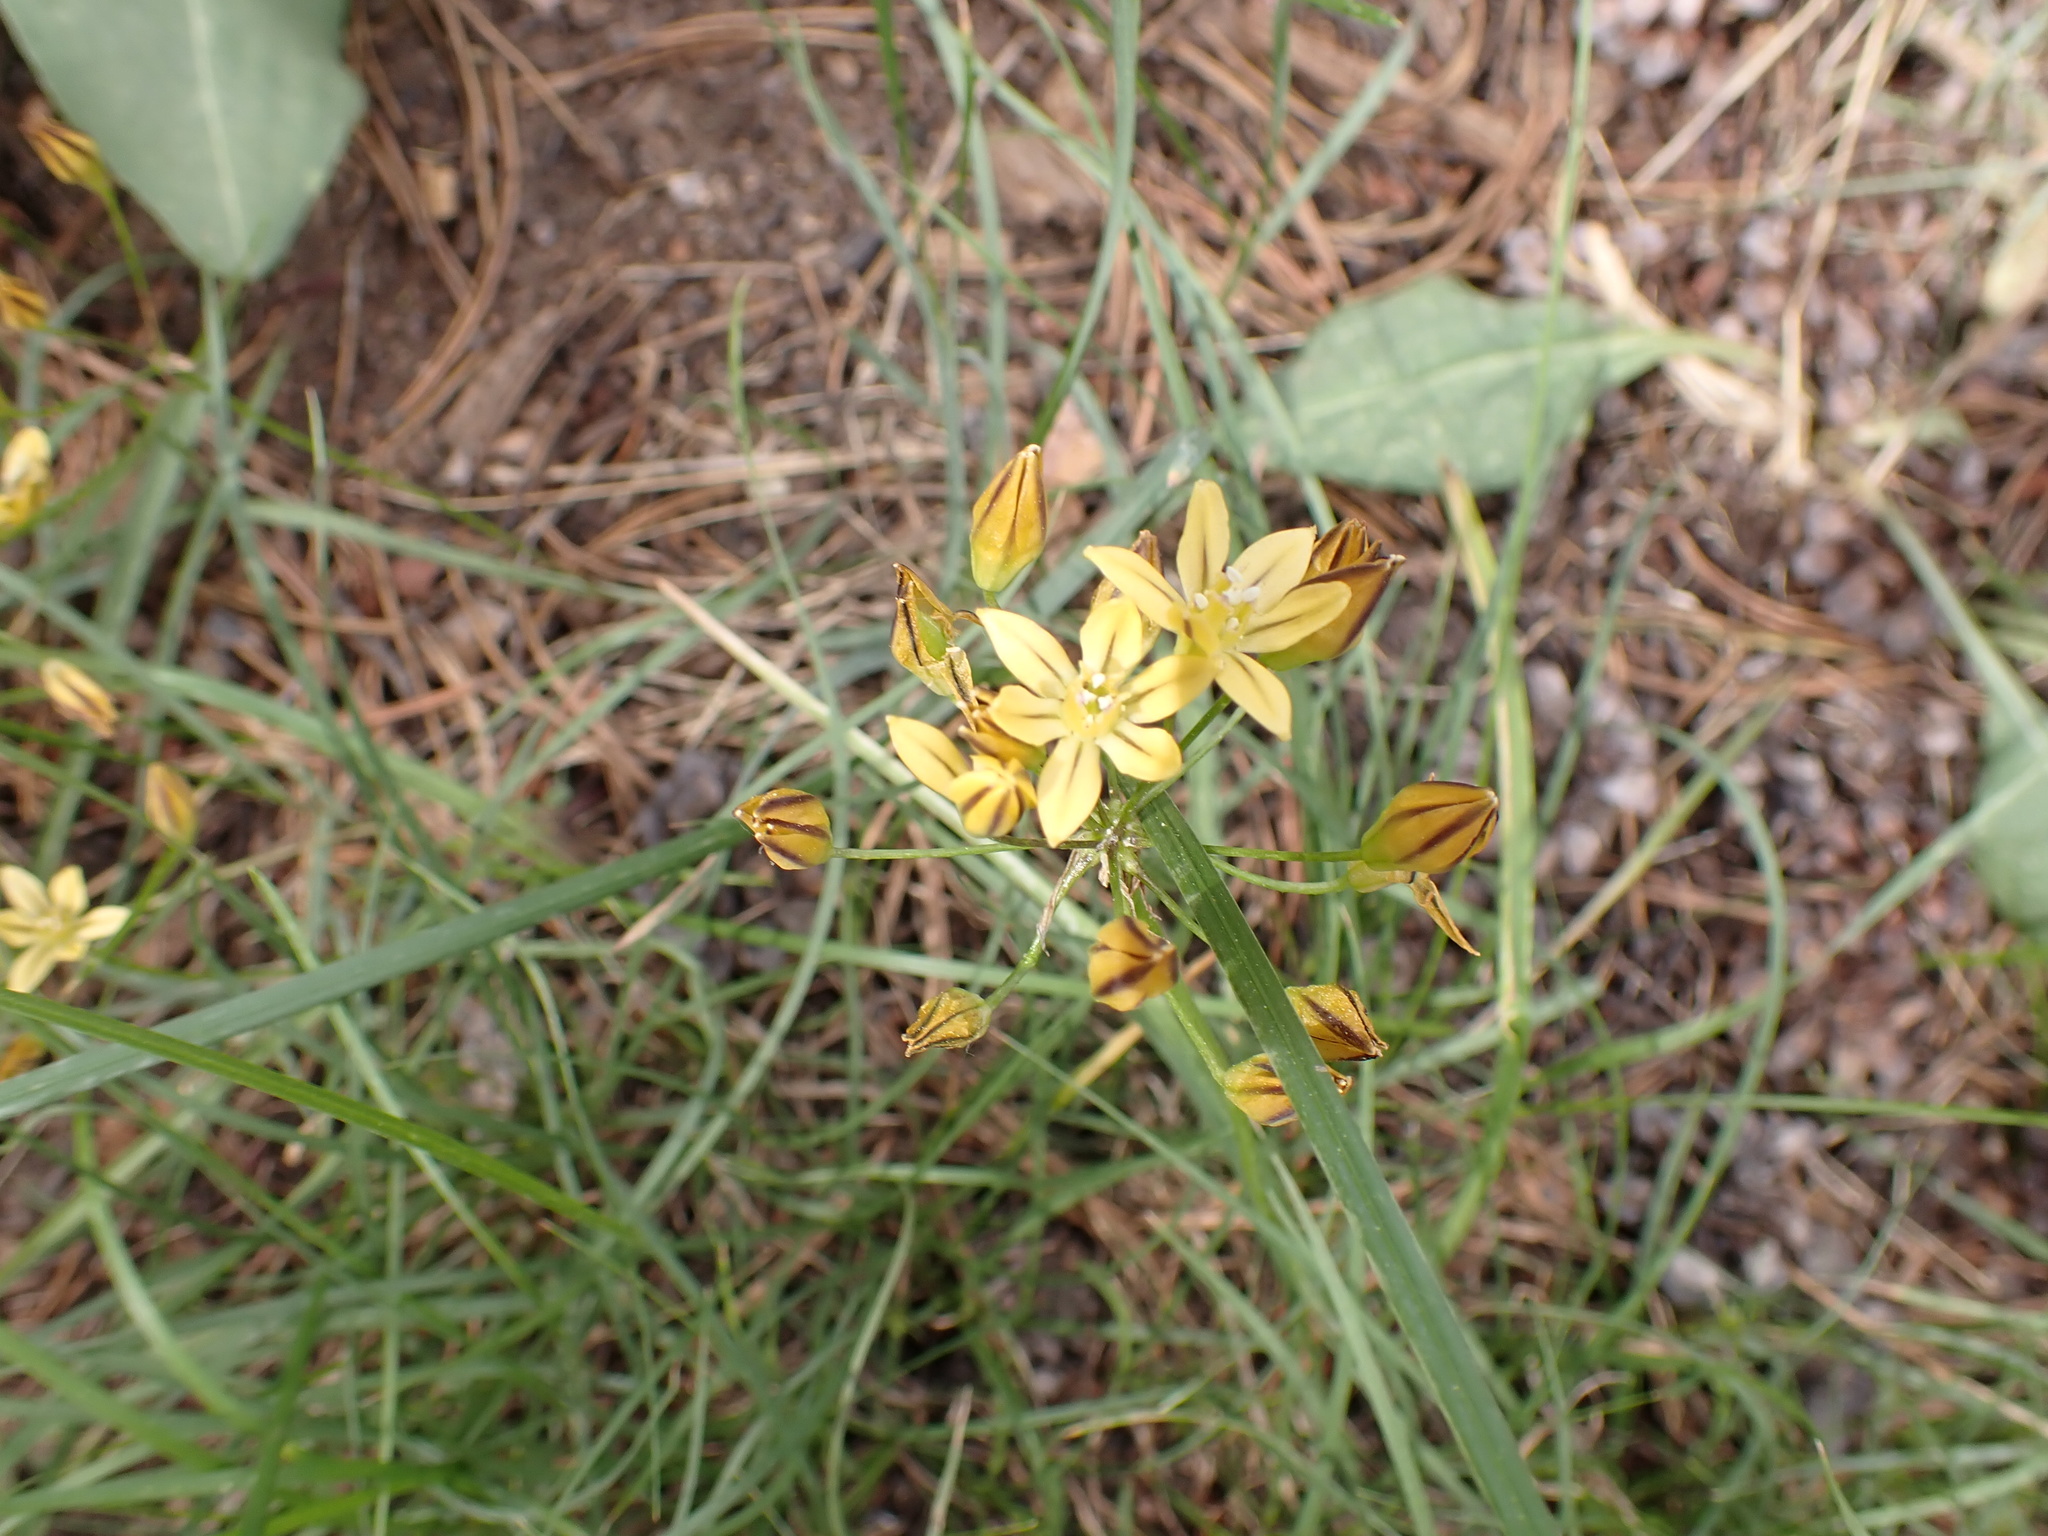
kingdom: Plantae
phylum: Tracheophyta
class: Liliopsida
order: Asparagales
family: Asparagaceae
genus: Triteleia
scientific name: Triteleia ixioides
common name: Yellow-brodiaea
